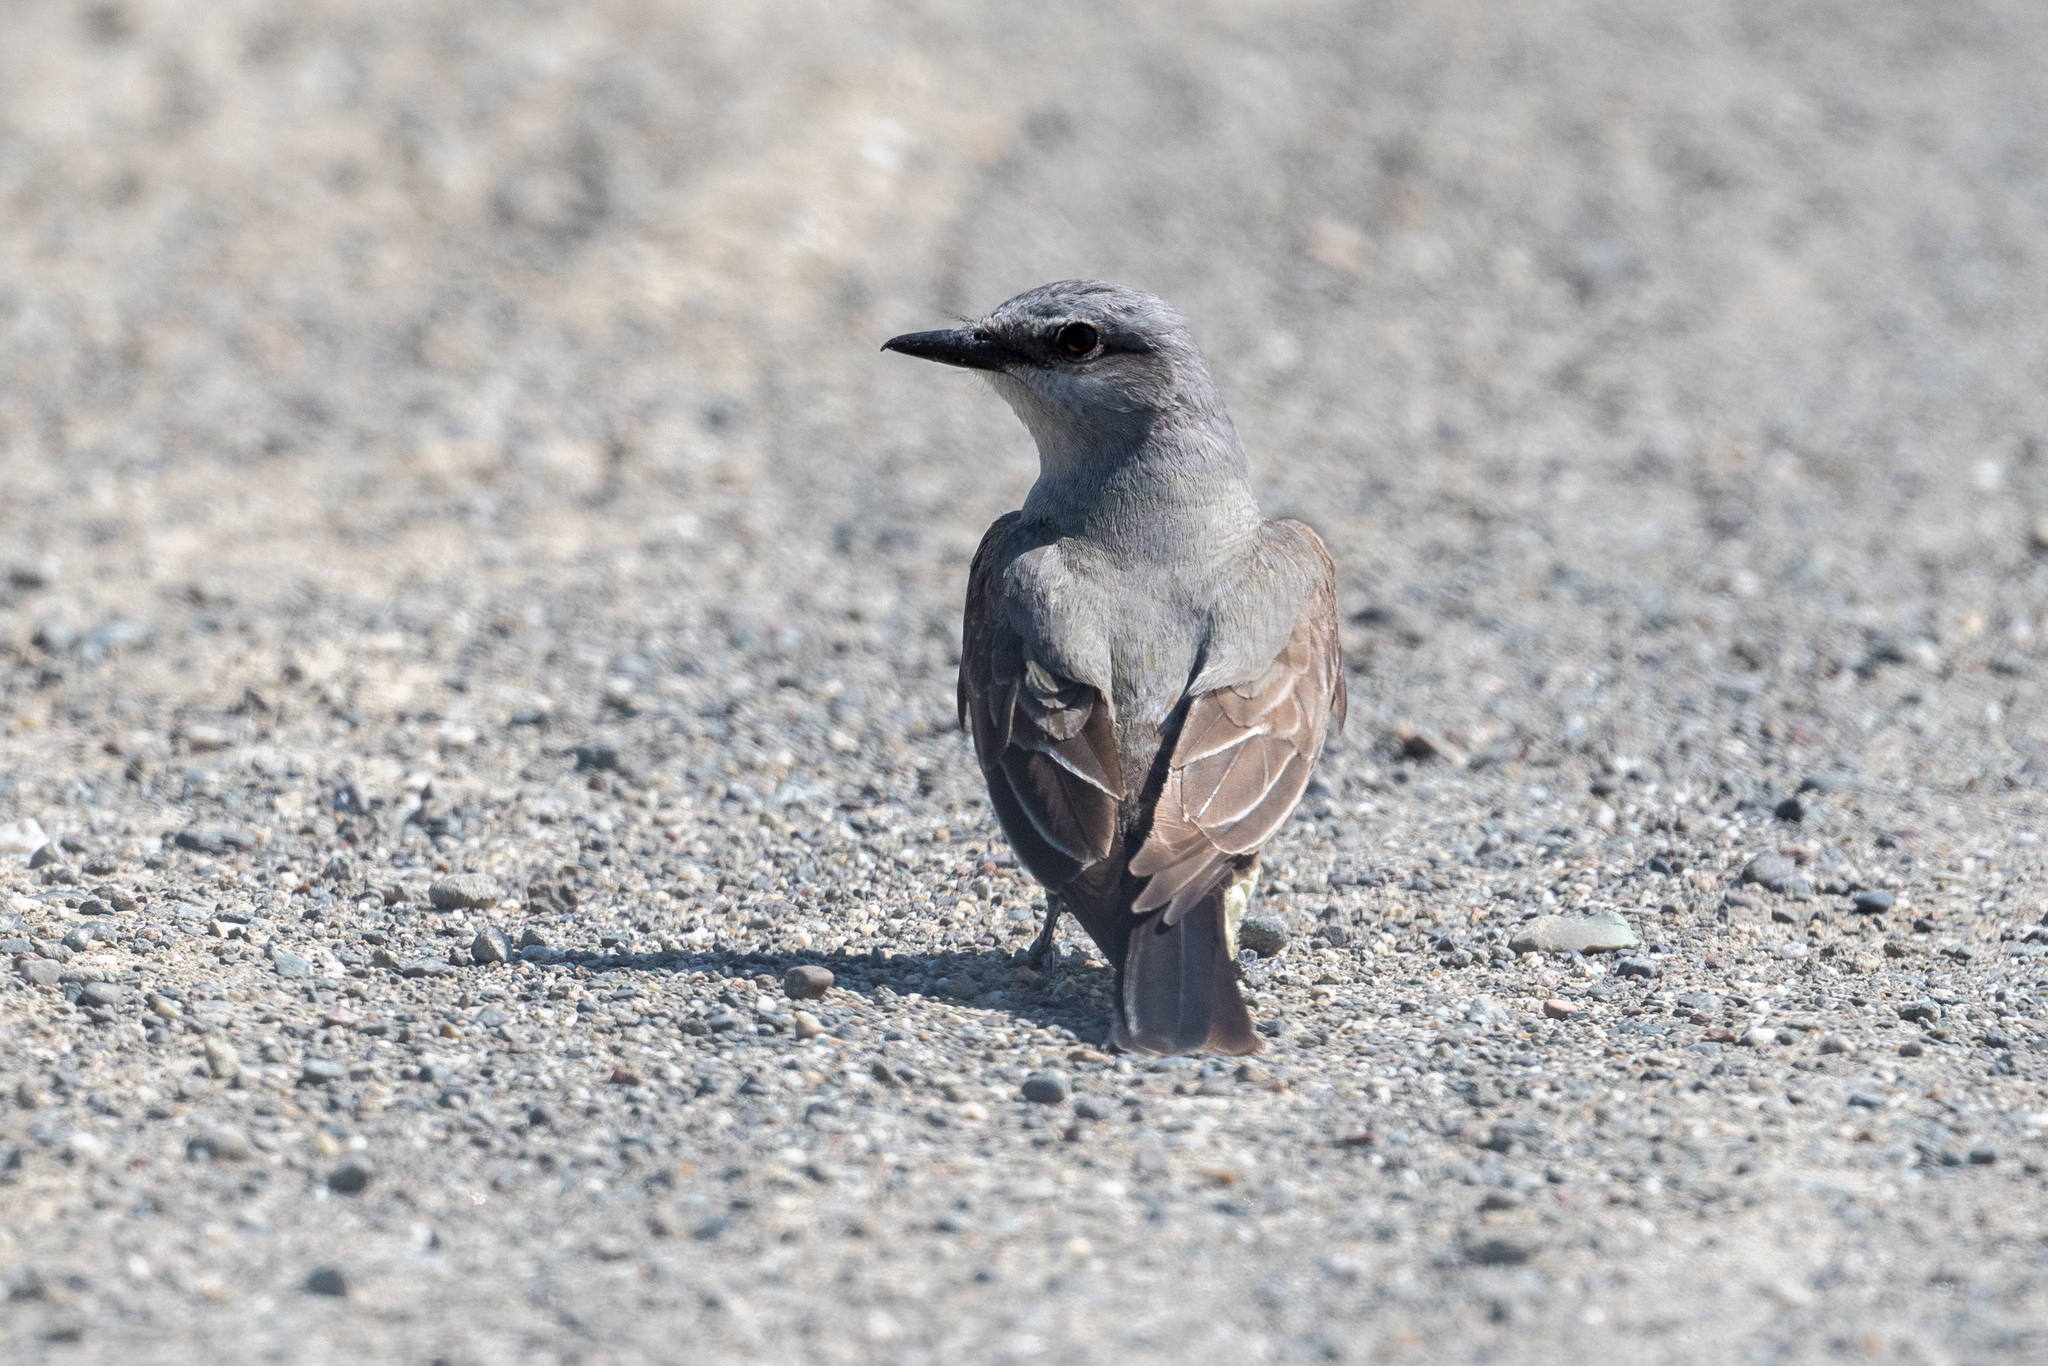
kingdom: Animalia
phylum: Chordata
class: Aves
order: Passeriformes
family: Tyrannidae
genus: Tyrannus
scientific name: Tyrannus verticalis
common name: Western kingbird
